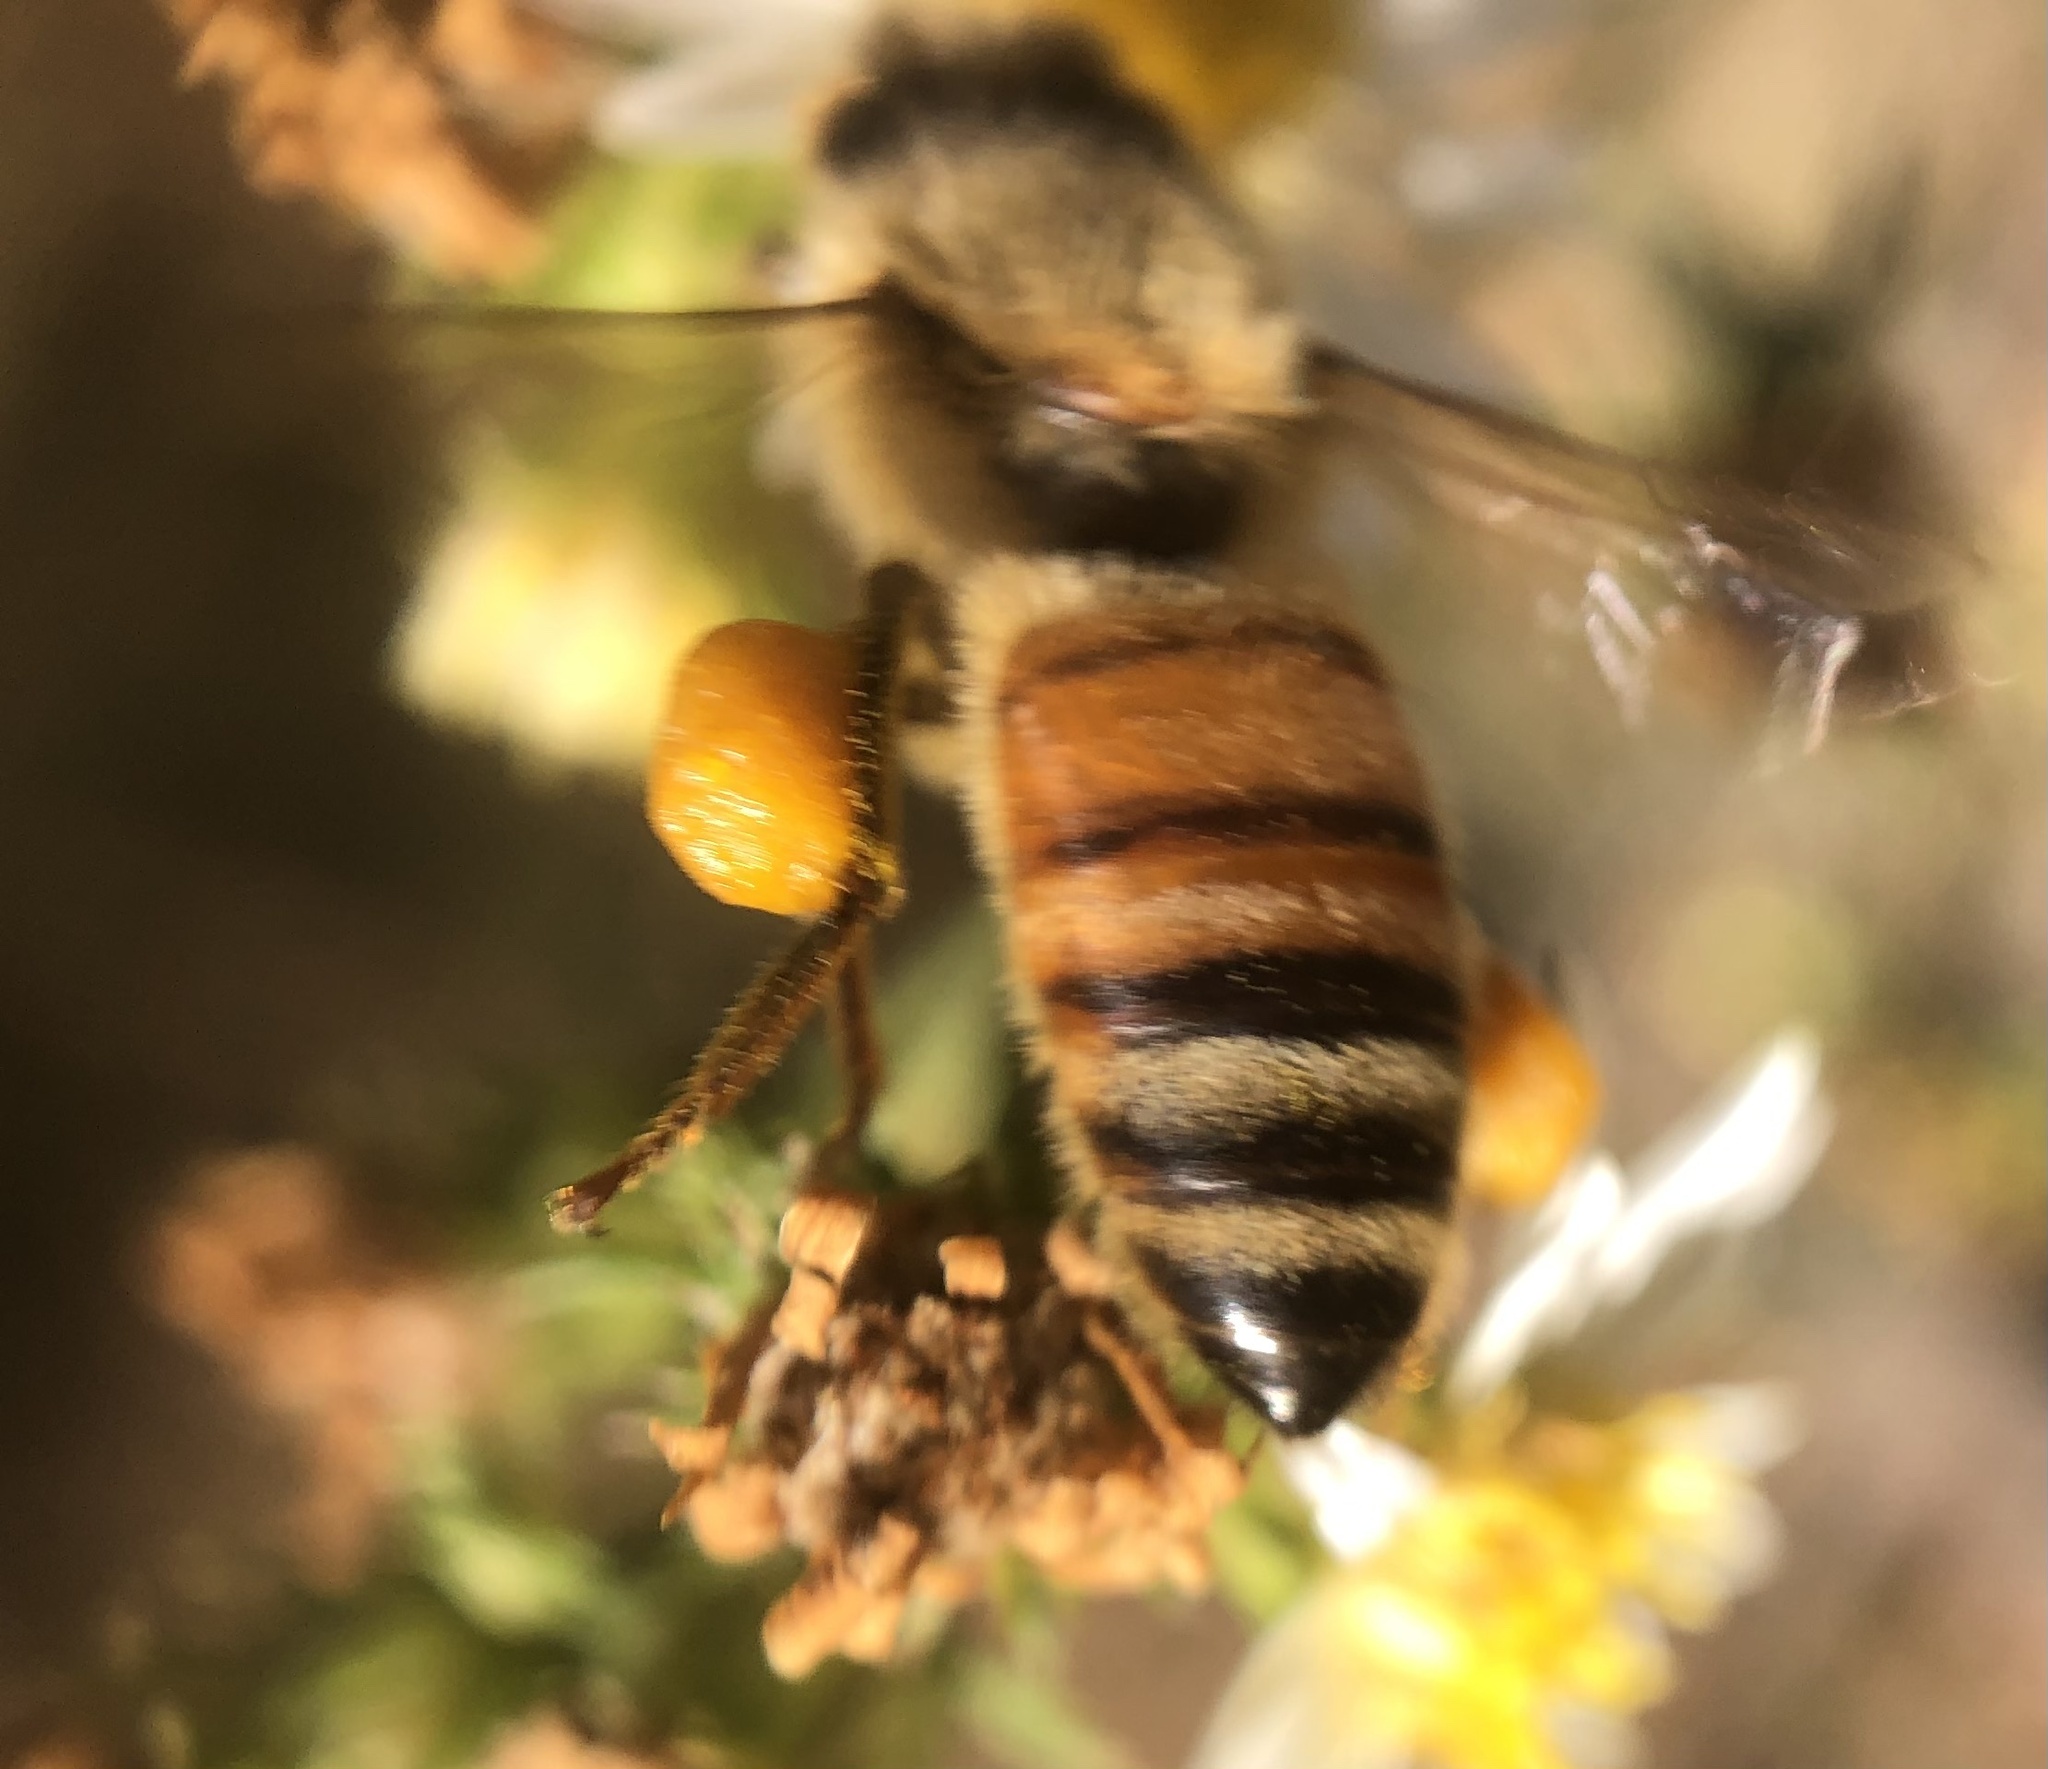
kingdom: Animalia
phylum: Arthropoda
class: Insecta
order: Hymenoptera
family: Apidae
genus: Apis
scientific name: Apis mellifera
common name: Honey bee
